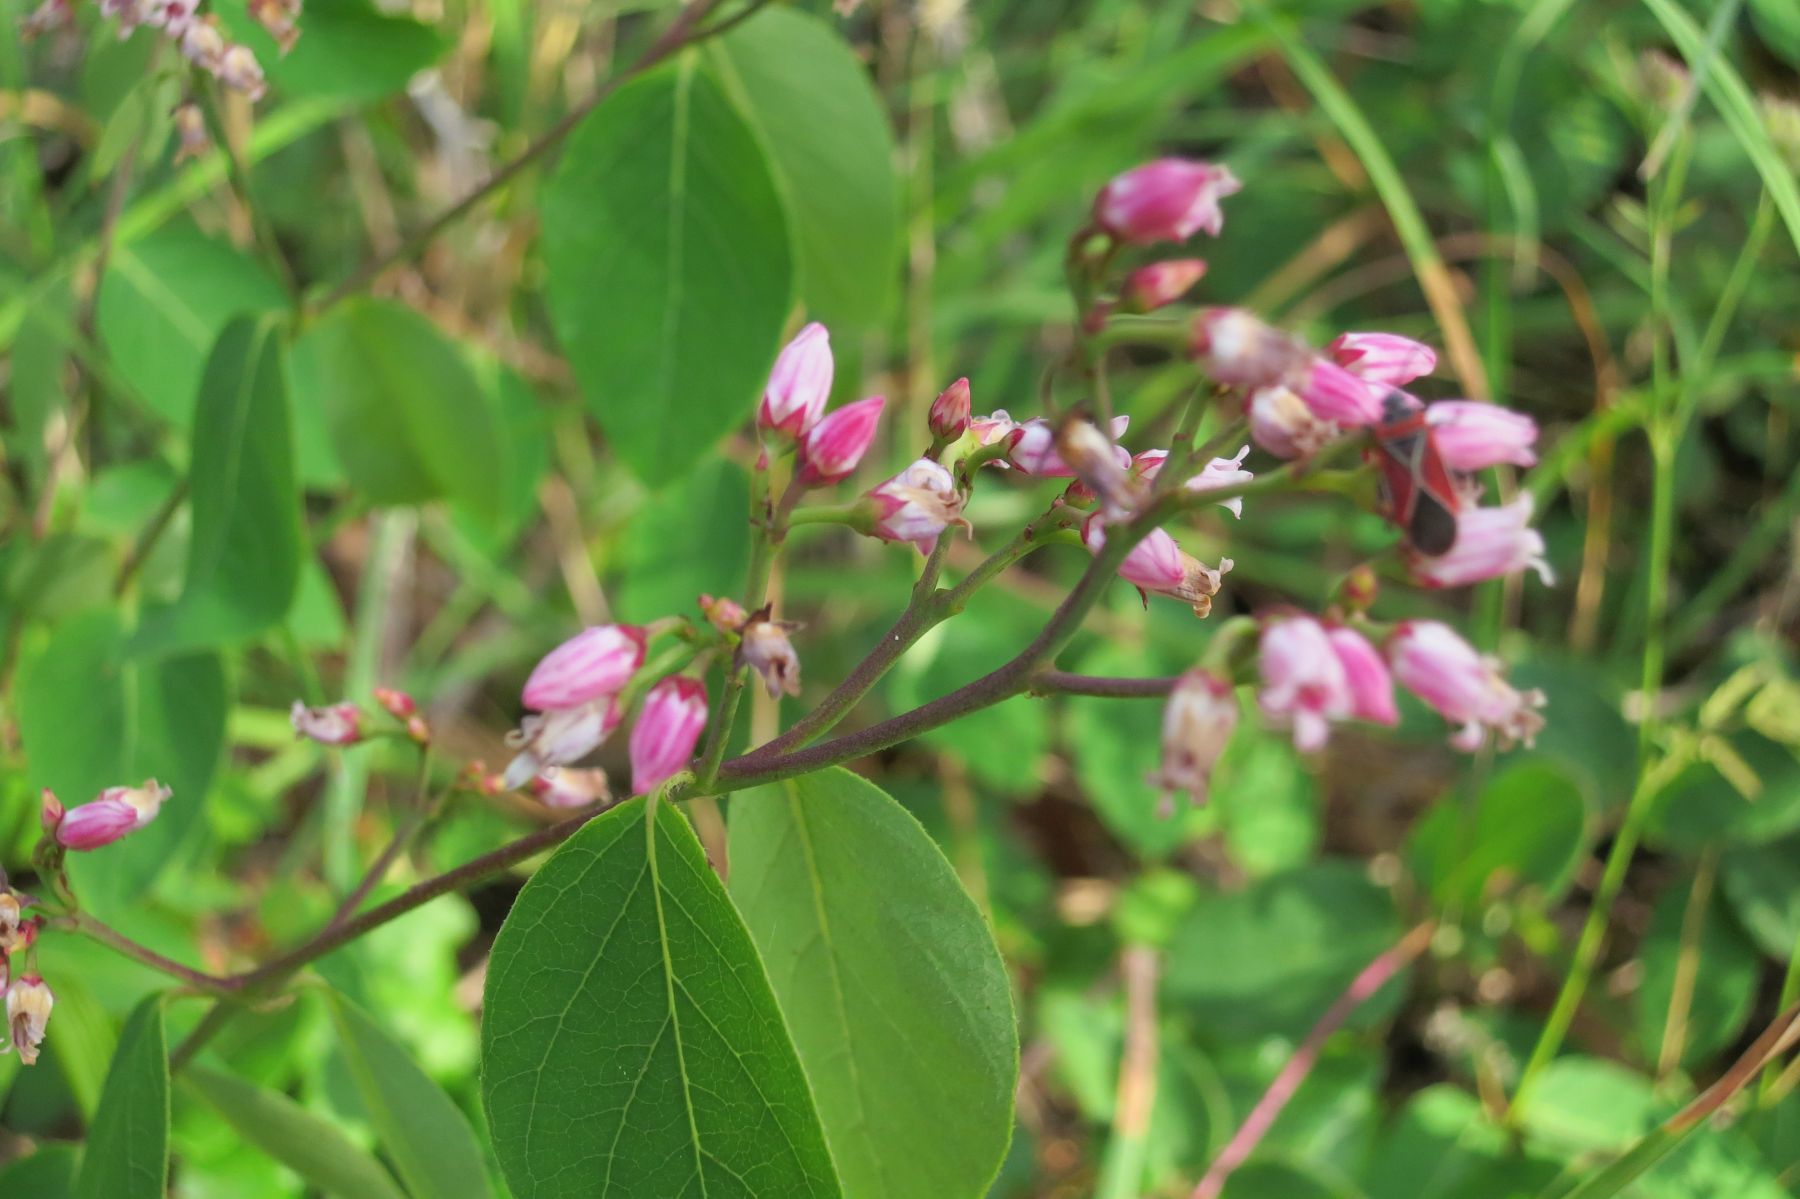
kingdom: Plantae
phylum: Tracheophyta
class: Magnoliopsida
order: Gentianales
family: Apocynaceae
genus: Apocynum
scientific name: Apocynum androsaemifolium
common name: Spreading dogbane
